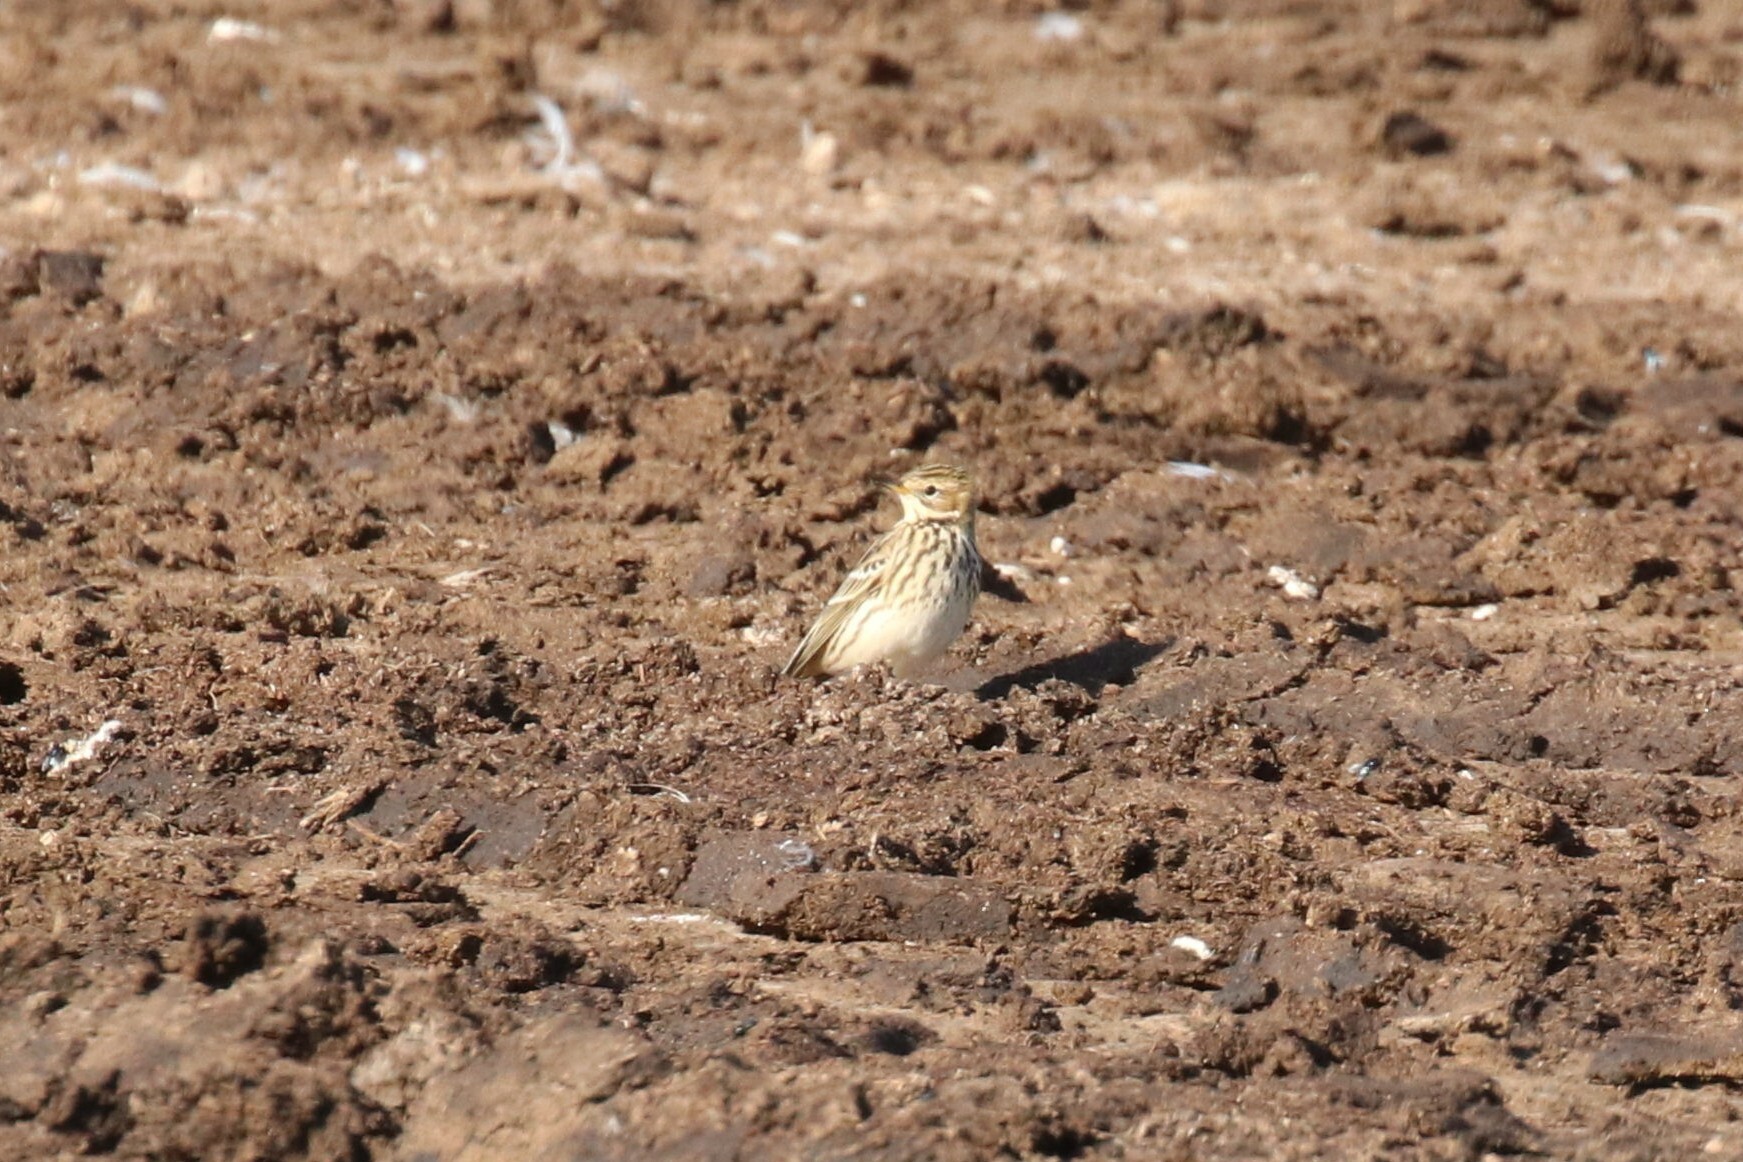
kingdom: Animalia
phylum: Chordata
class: Aves
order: Passeriformes
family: Motacillidae
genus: Anthus
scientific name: Anthus cervinus
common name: Red-throated pipit
